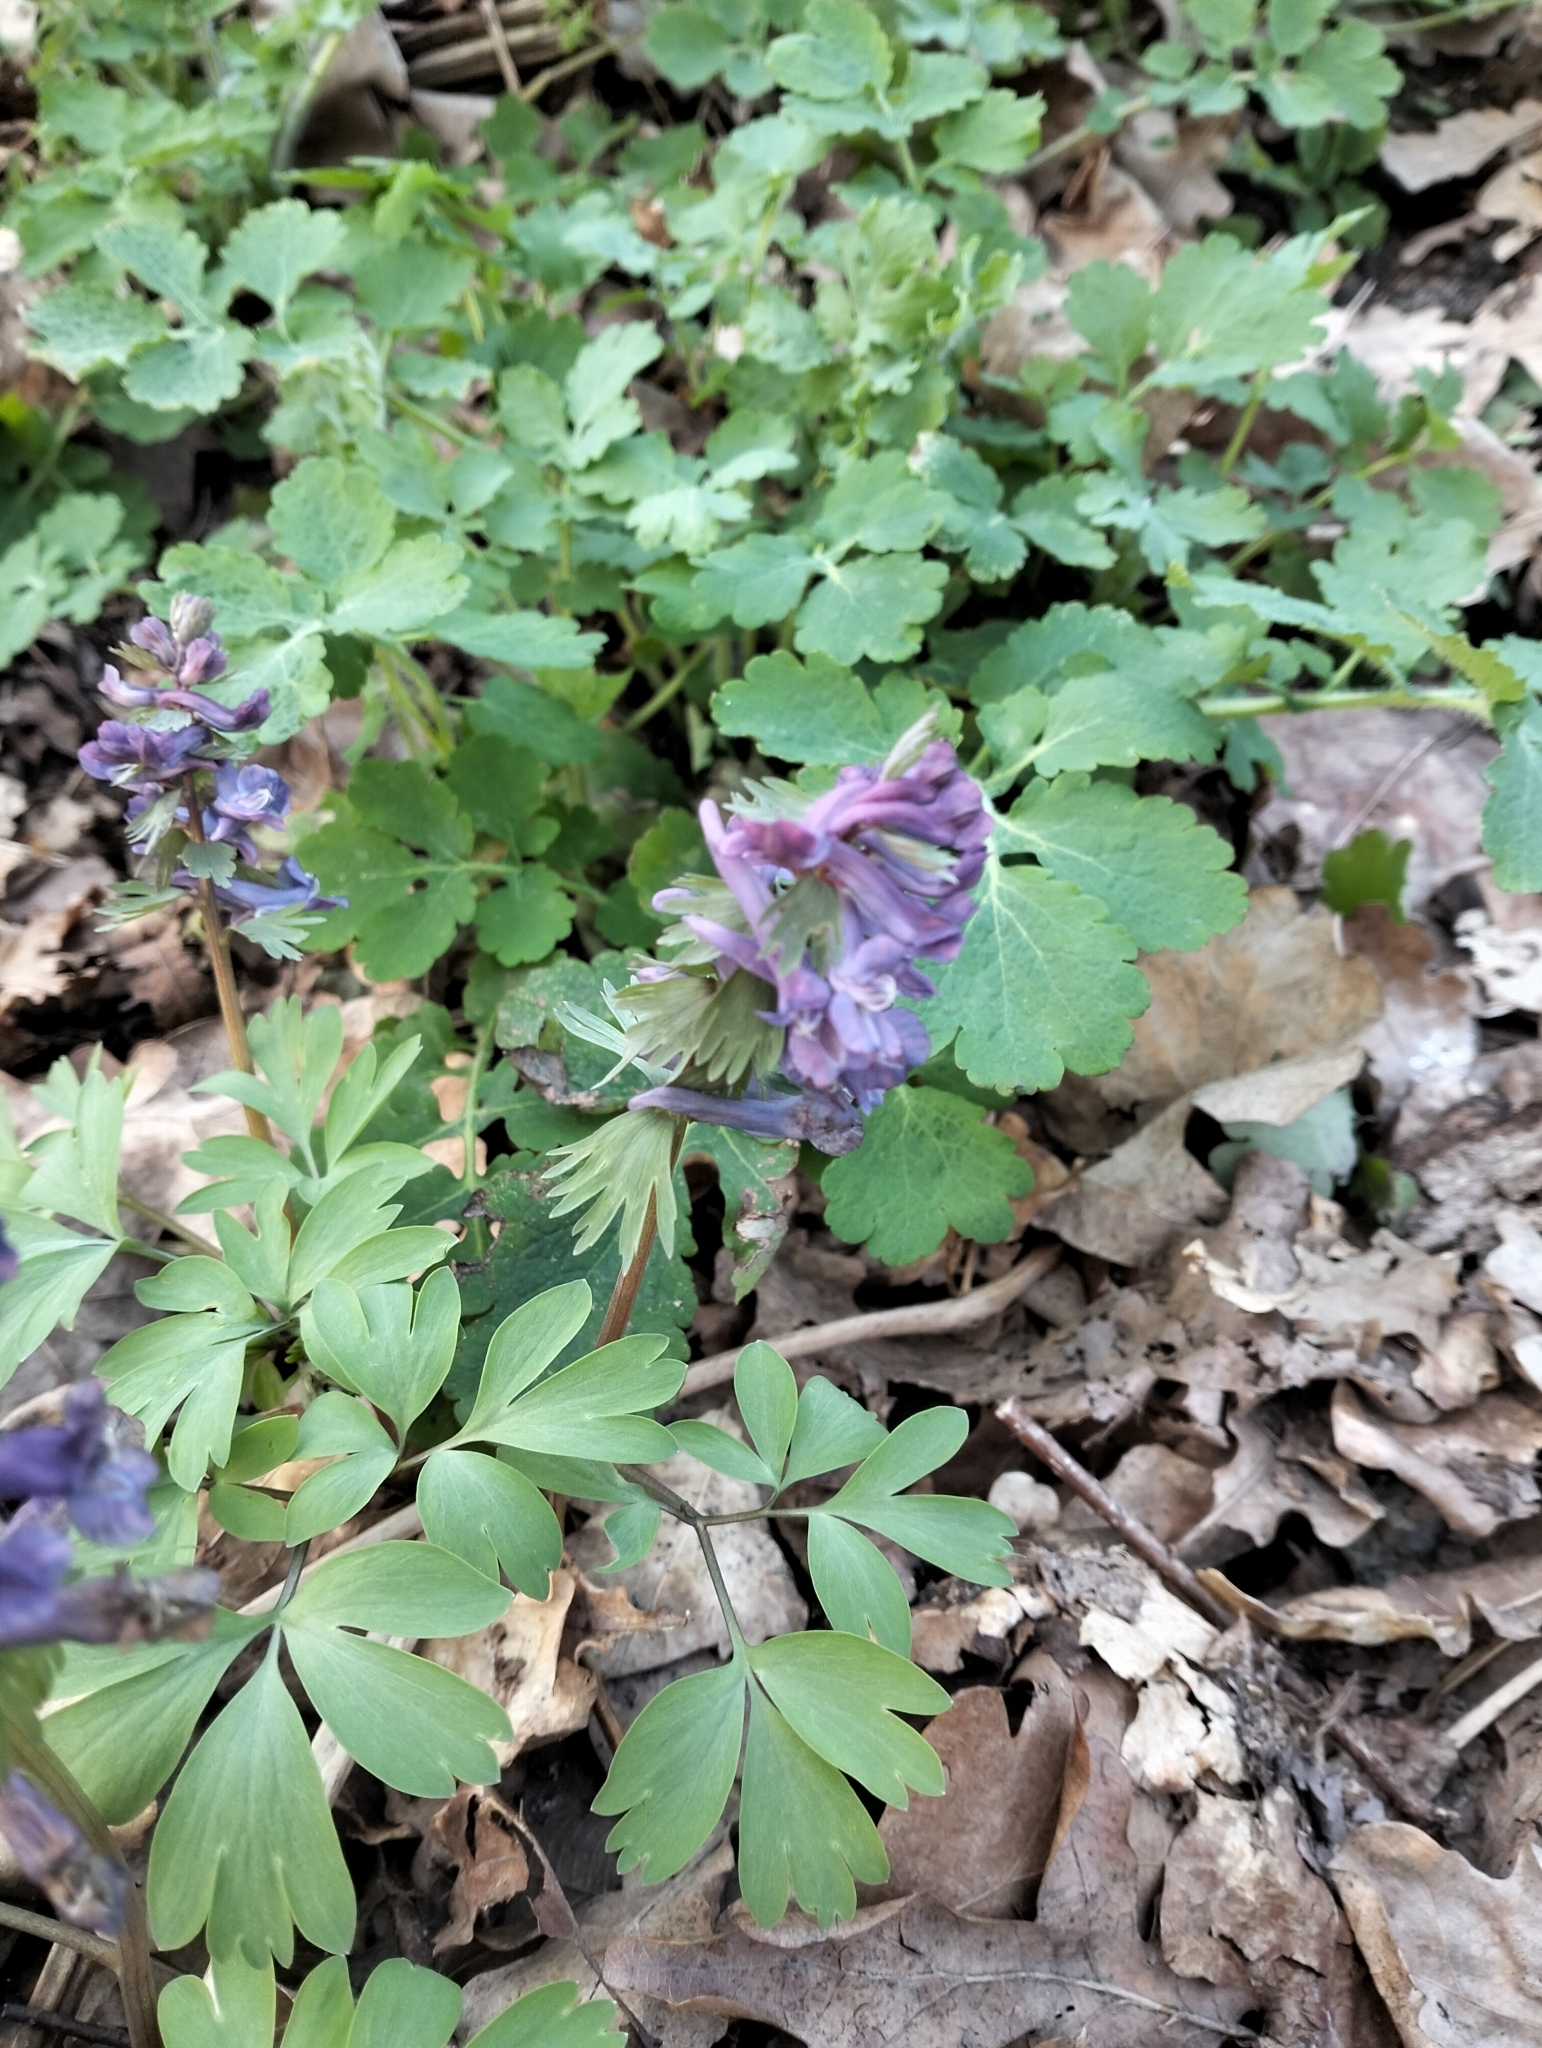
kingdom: Plantae
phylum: Tracheophyta
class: Magnoliopsida
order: Ranunculales
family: Papaveraceae
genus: Corydalis
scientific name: Corydalis solida
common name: Bird-in-a-bush
